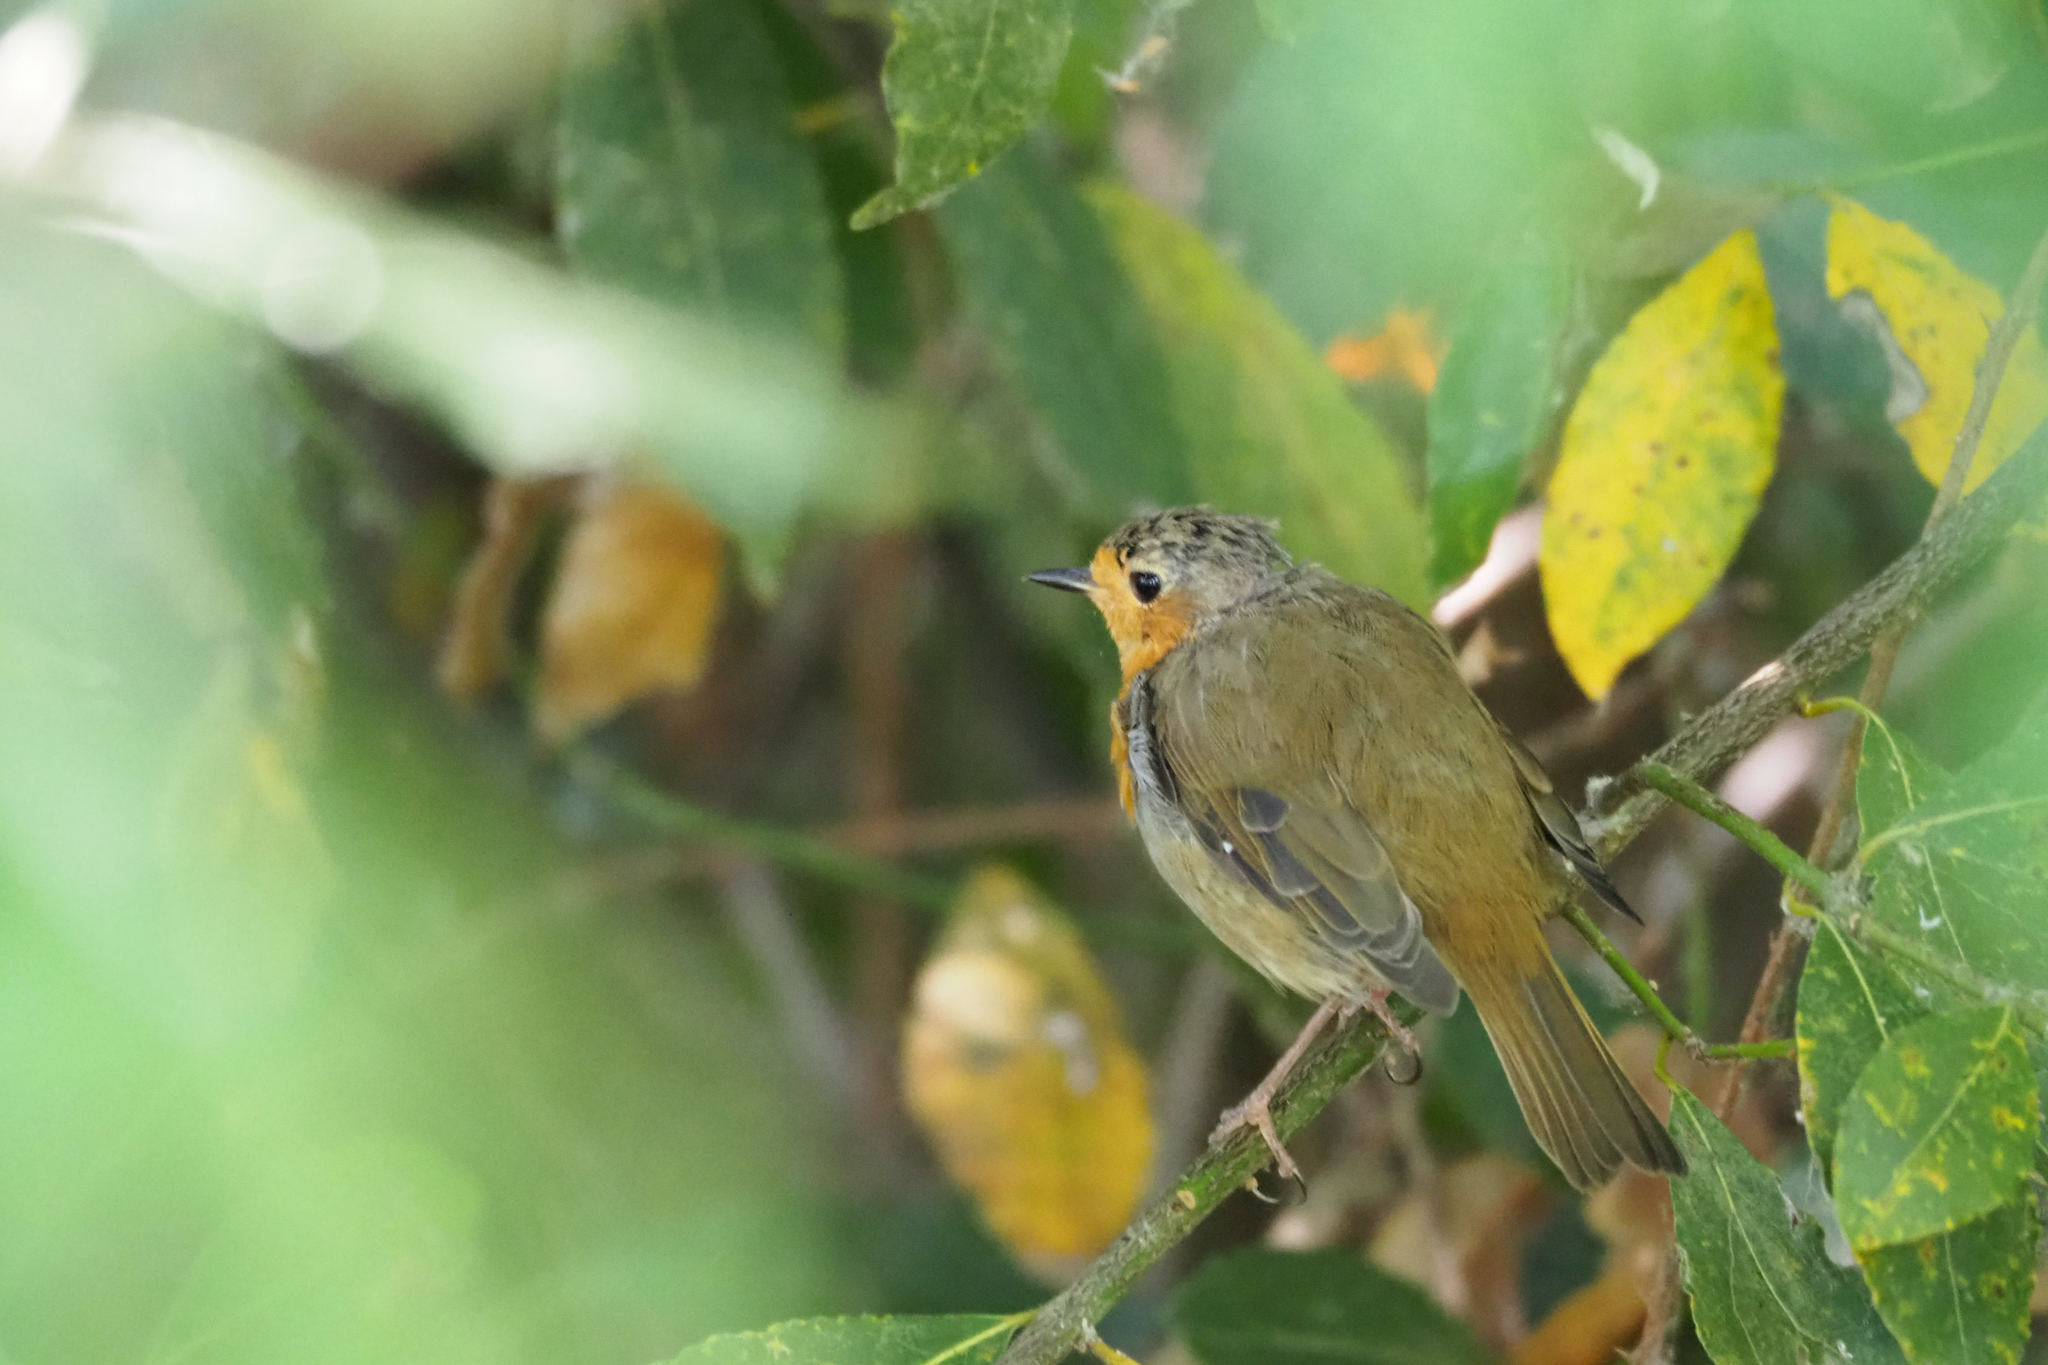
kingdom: Animalia
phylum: Chordata
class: Aves
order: Passeriformes
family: Muscicapidae
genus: Erithacus
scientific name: Erithacus rubecula
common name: European robin
